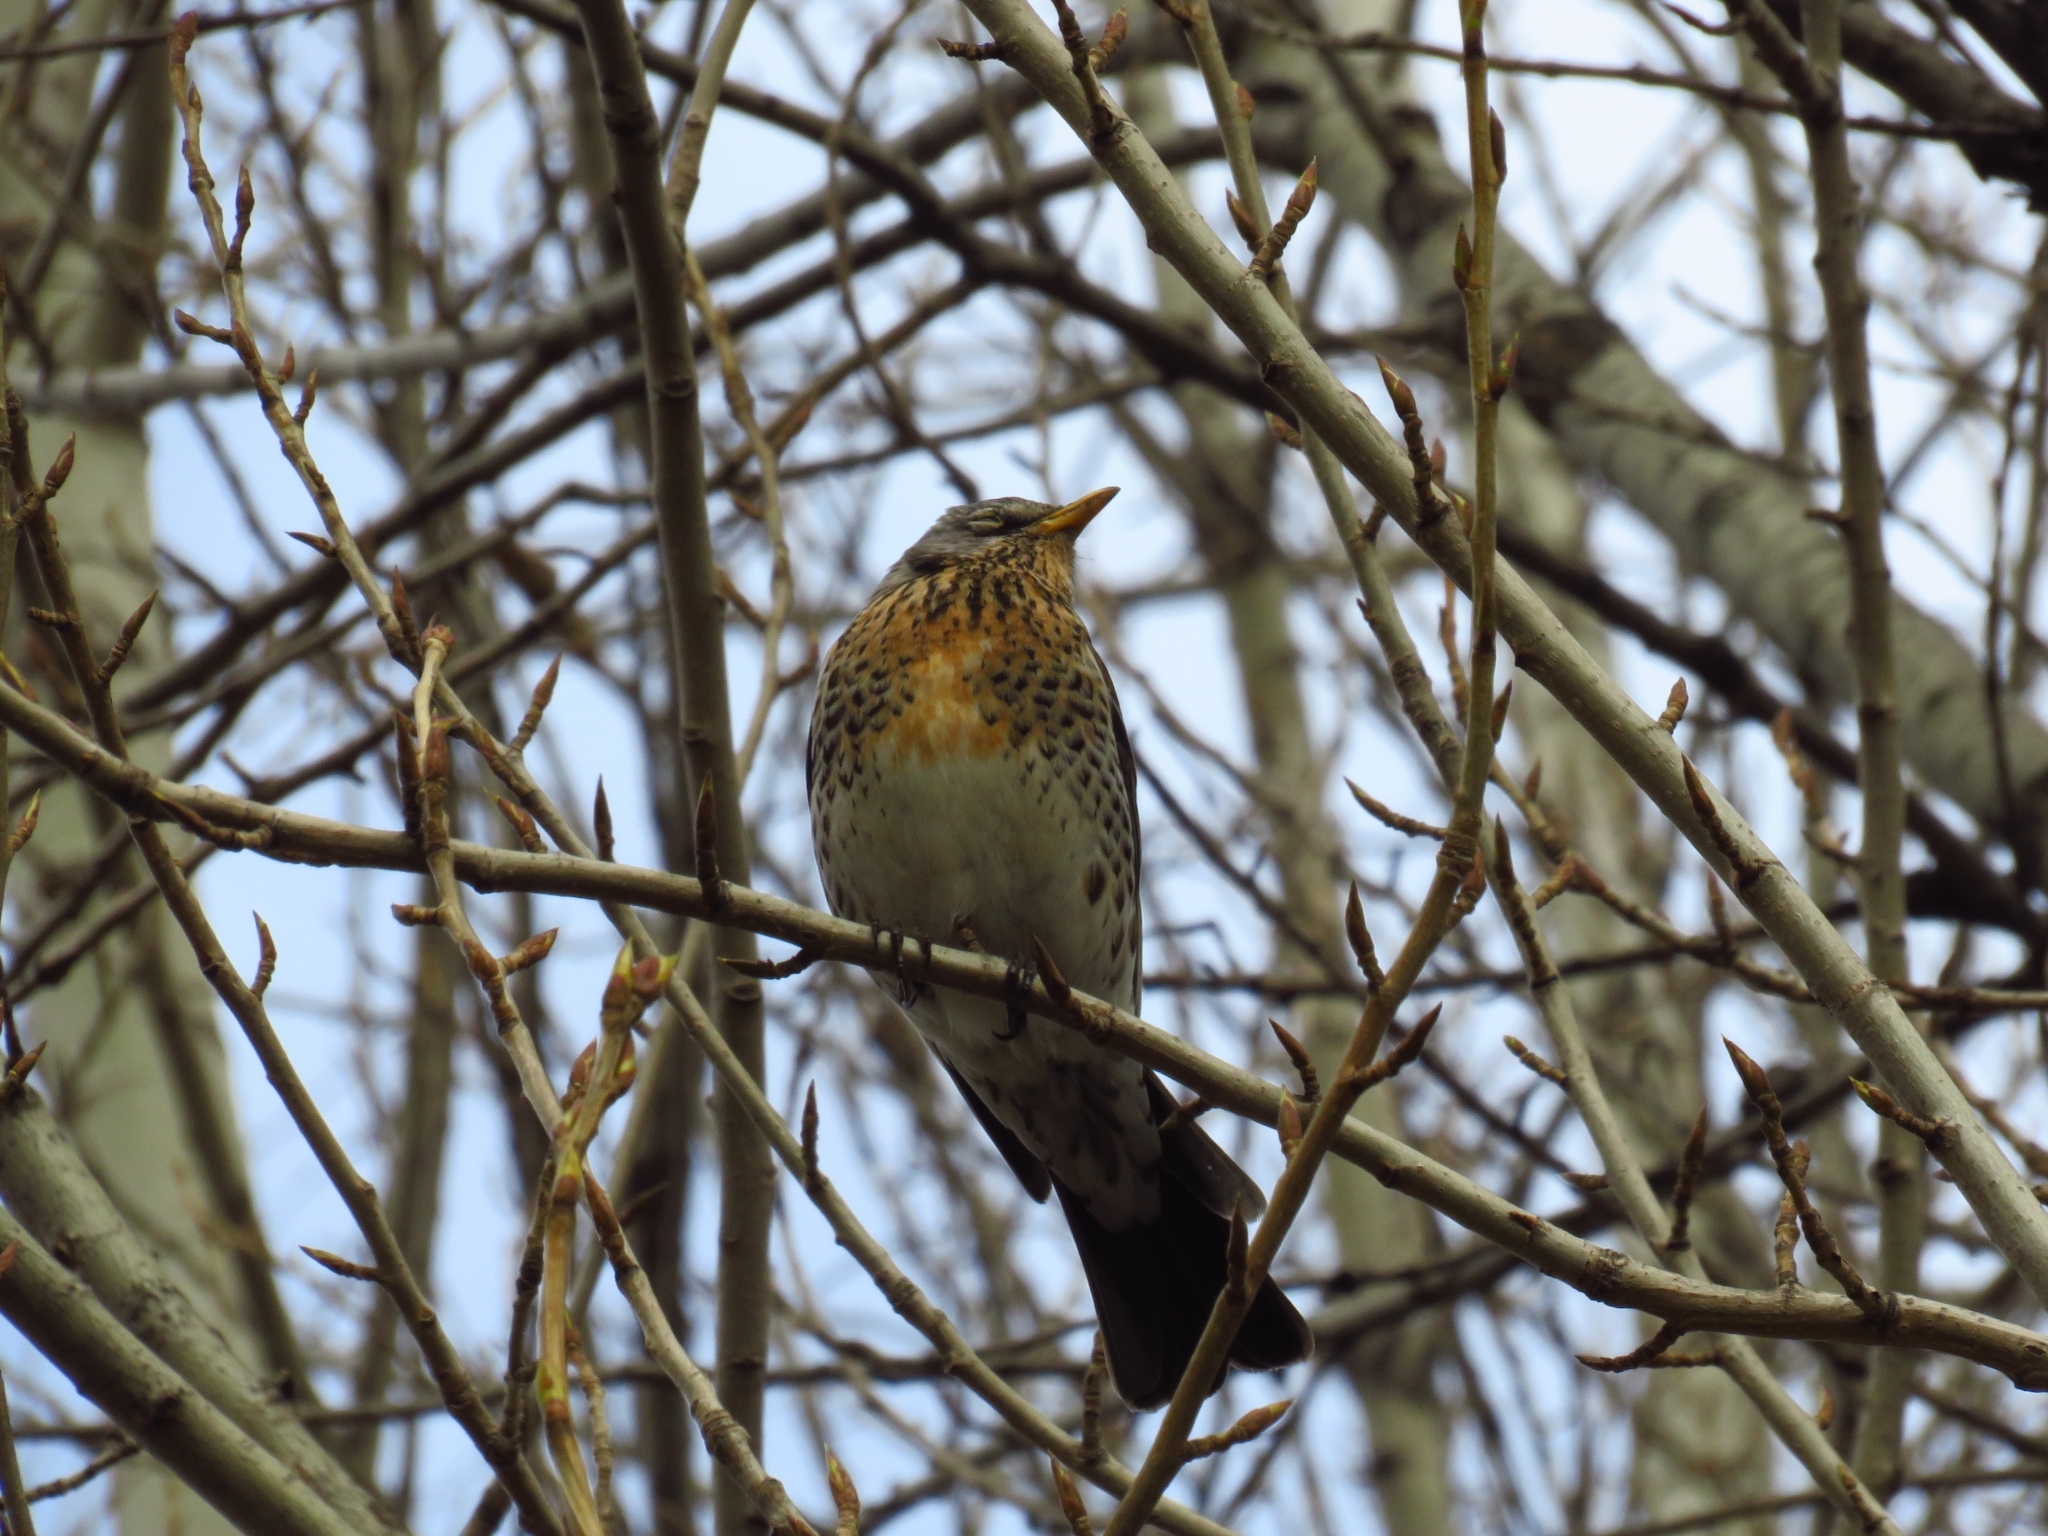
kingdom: Animalia
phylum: Chordata
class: Aves
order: Passeriformes
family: Turdidae
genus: Turdus
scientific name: Turdus pilaris
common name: Fieldfare
